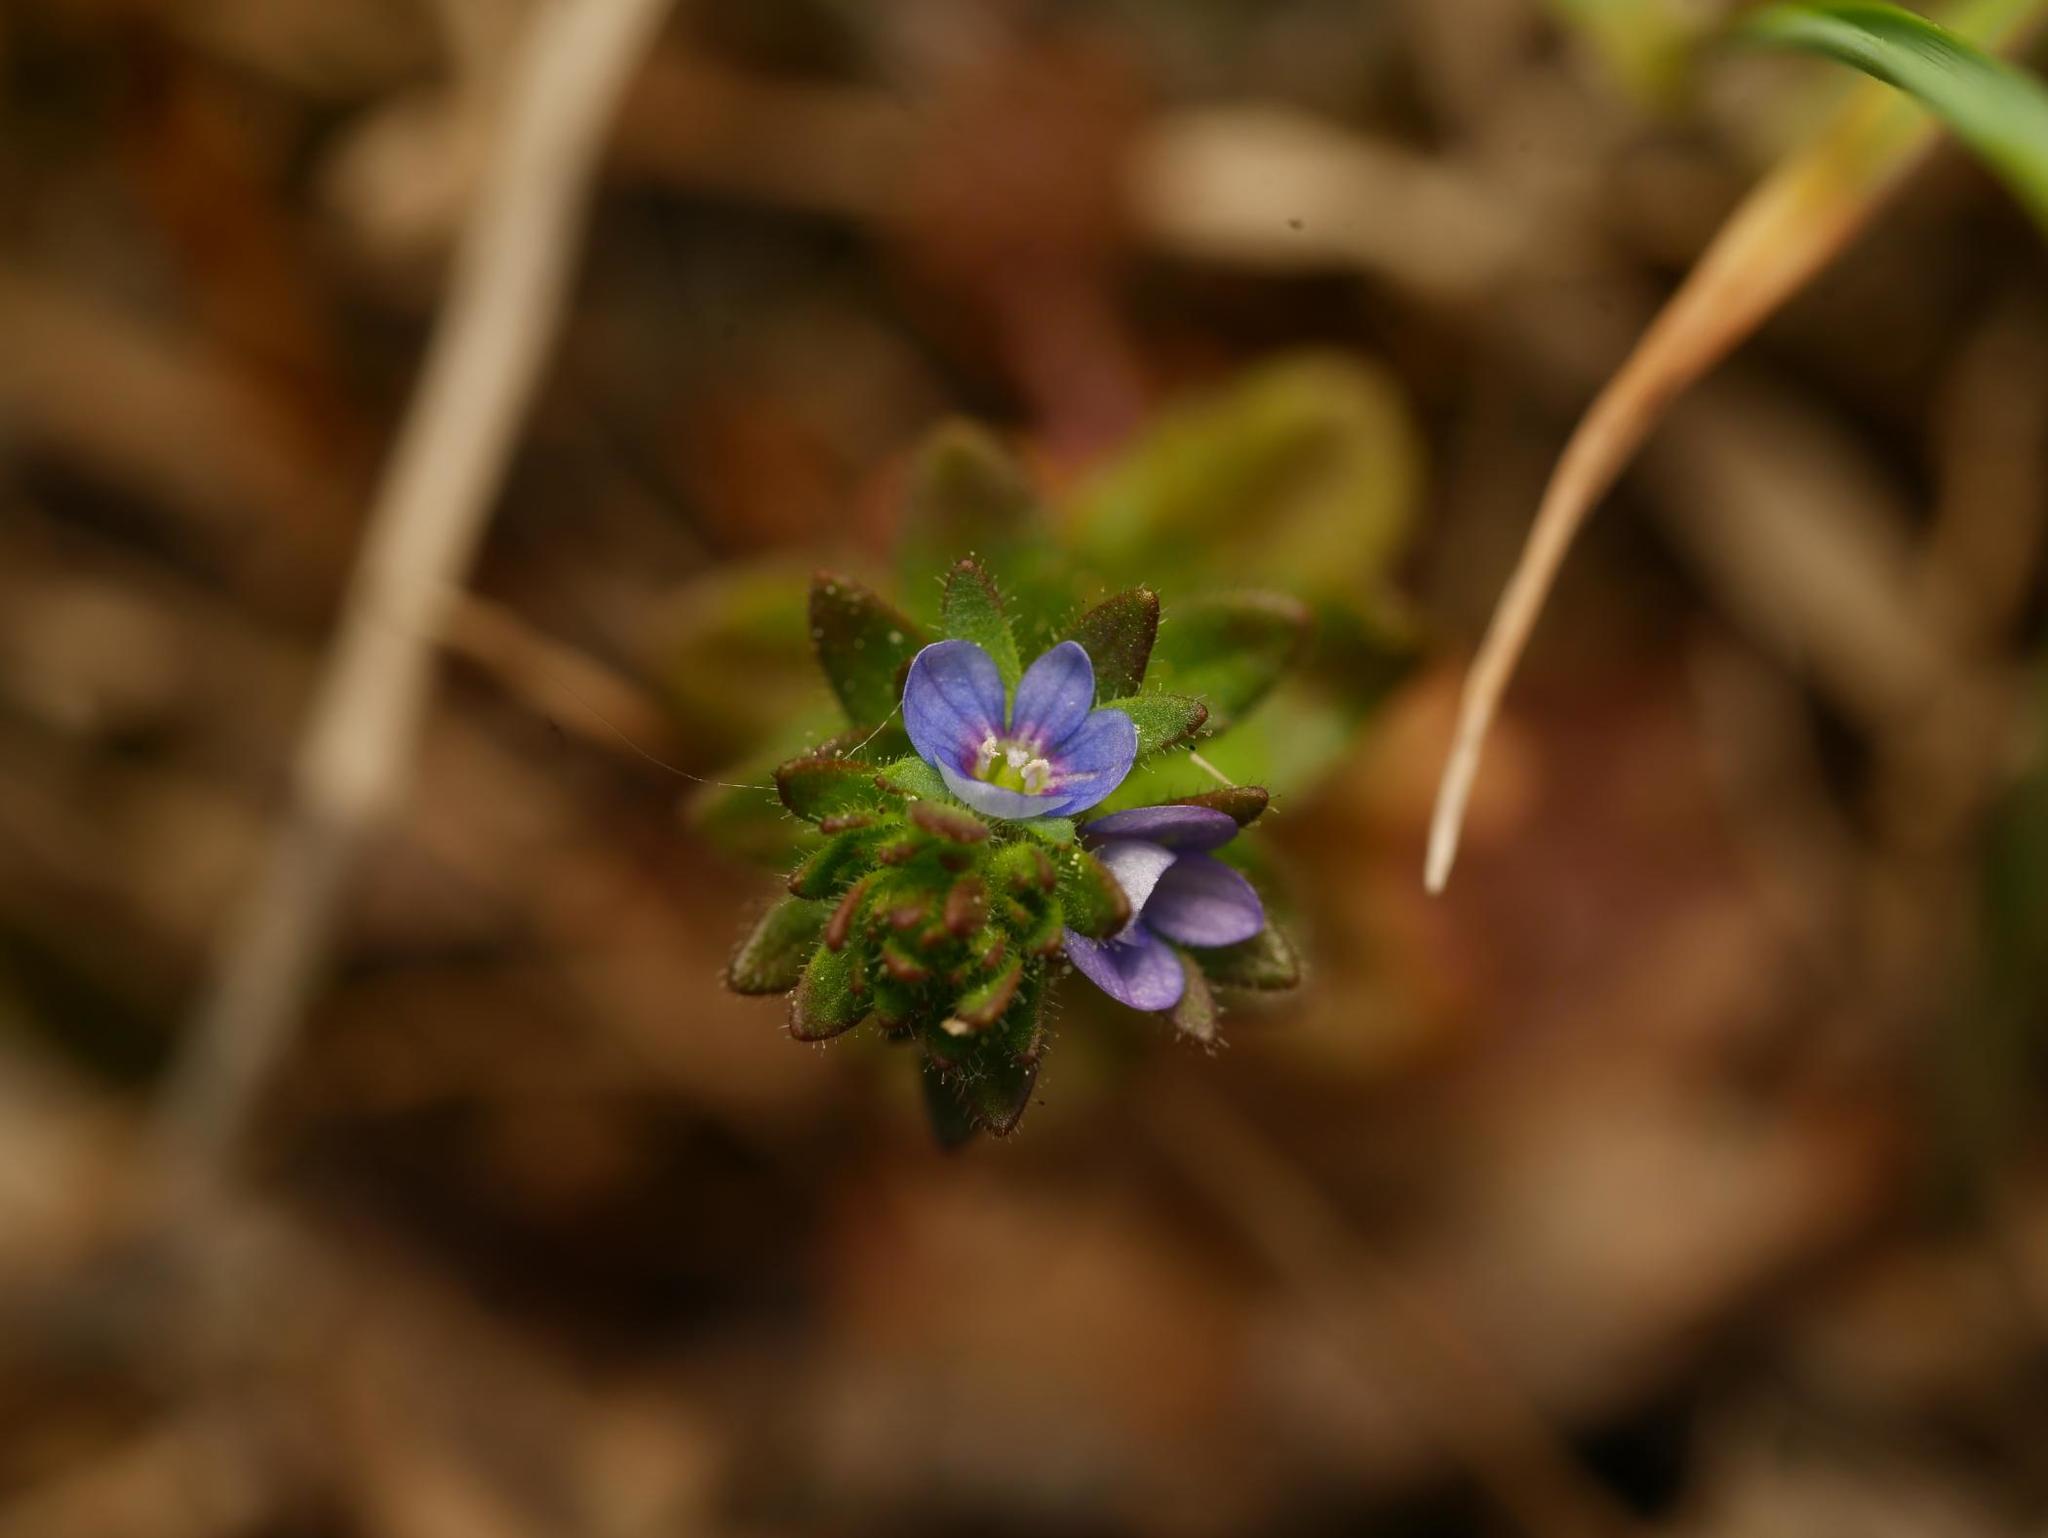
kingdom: Plantae
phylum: Tracheophyta
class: Magnoliopsida
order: Lamiales
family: Plantaginaceae
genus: Veronica
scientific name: Veronica arvensis
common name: Corn speedwell
